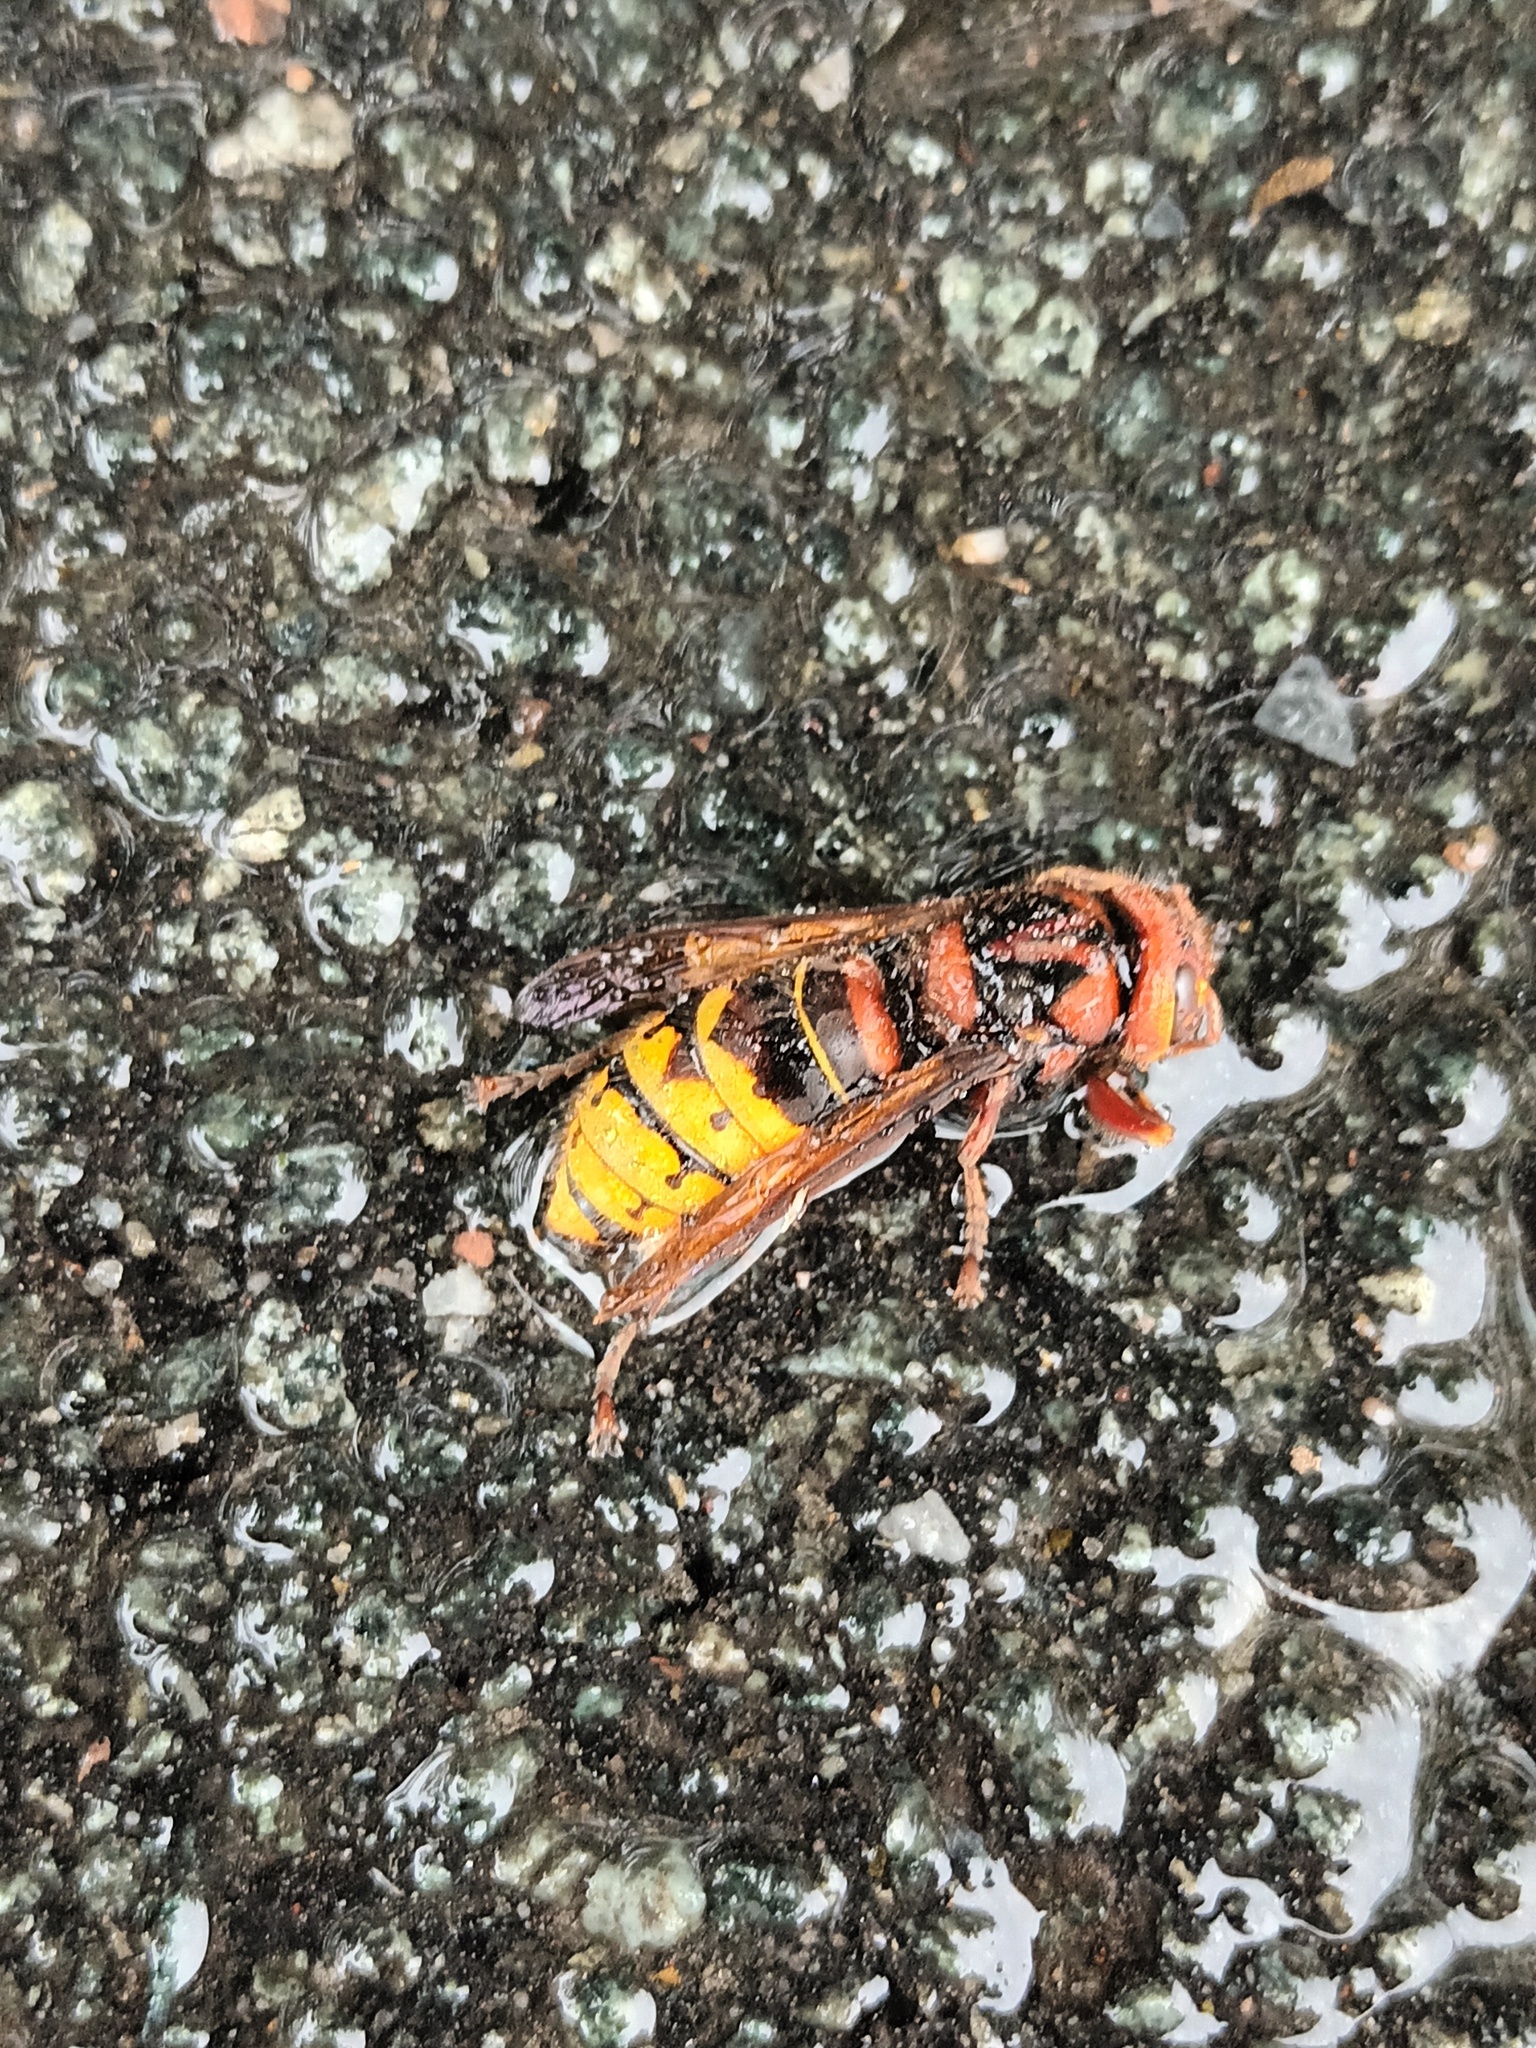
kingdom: Animalia
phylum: Arthropoda
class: Insecta
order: Hymenoptera
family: Vespidae
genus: Vespa
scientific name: Vespa crabro
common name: Hornet
